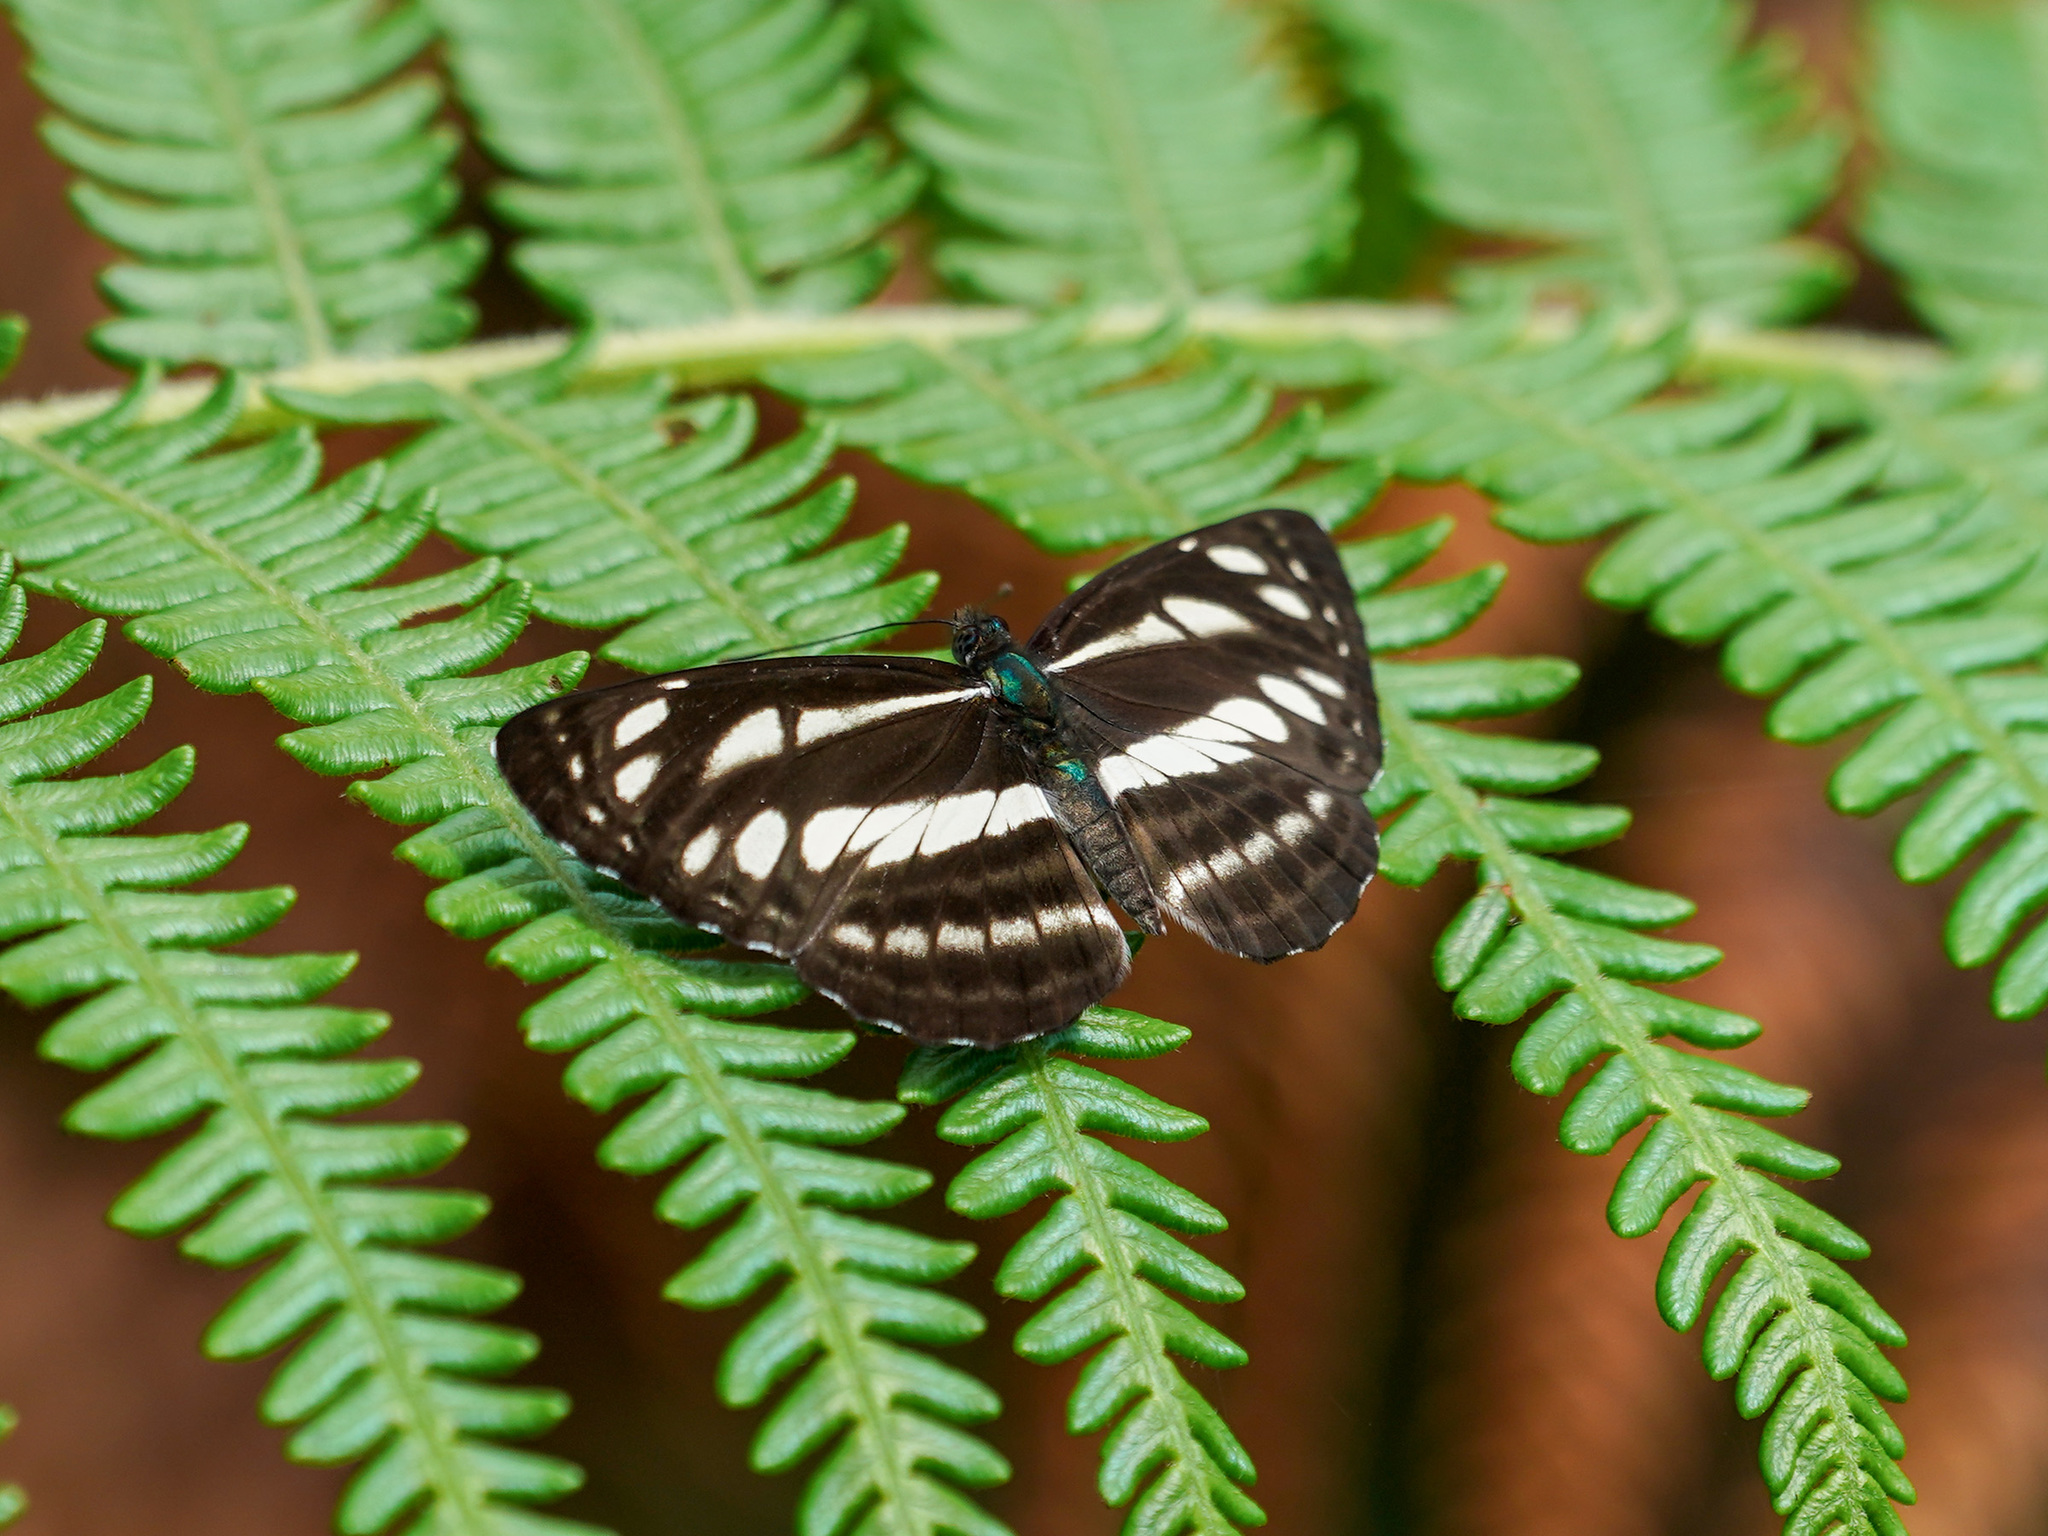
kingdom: Animalia
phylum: Arthropoda
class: Insecta
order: Lepidoptera
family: Nymphalidae
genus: Neptis
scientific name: Neptis soma
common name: Cream-spotted sailor
